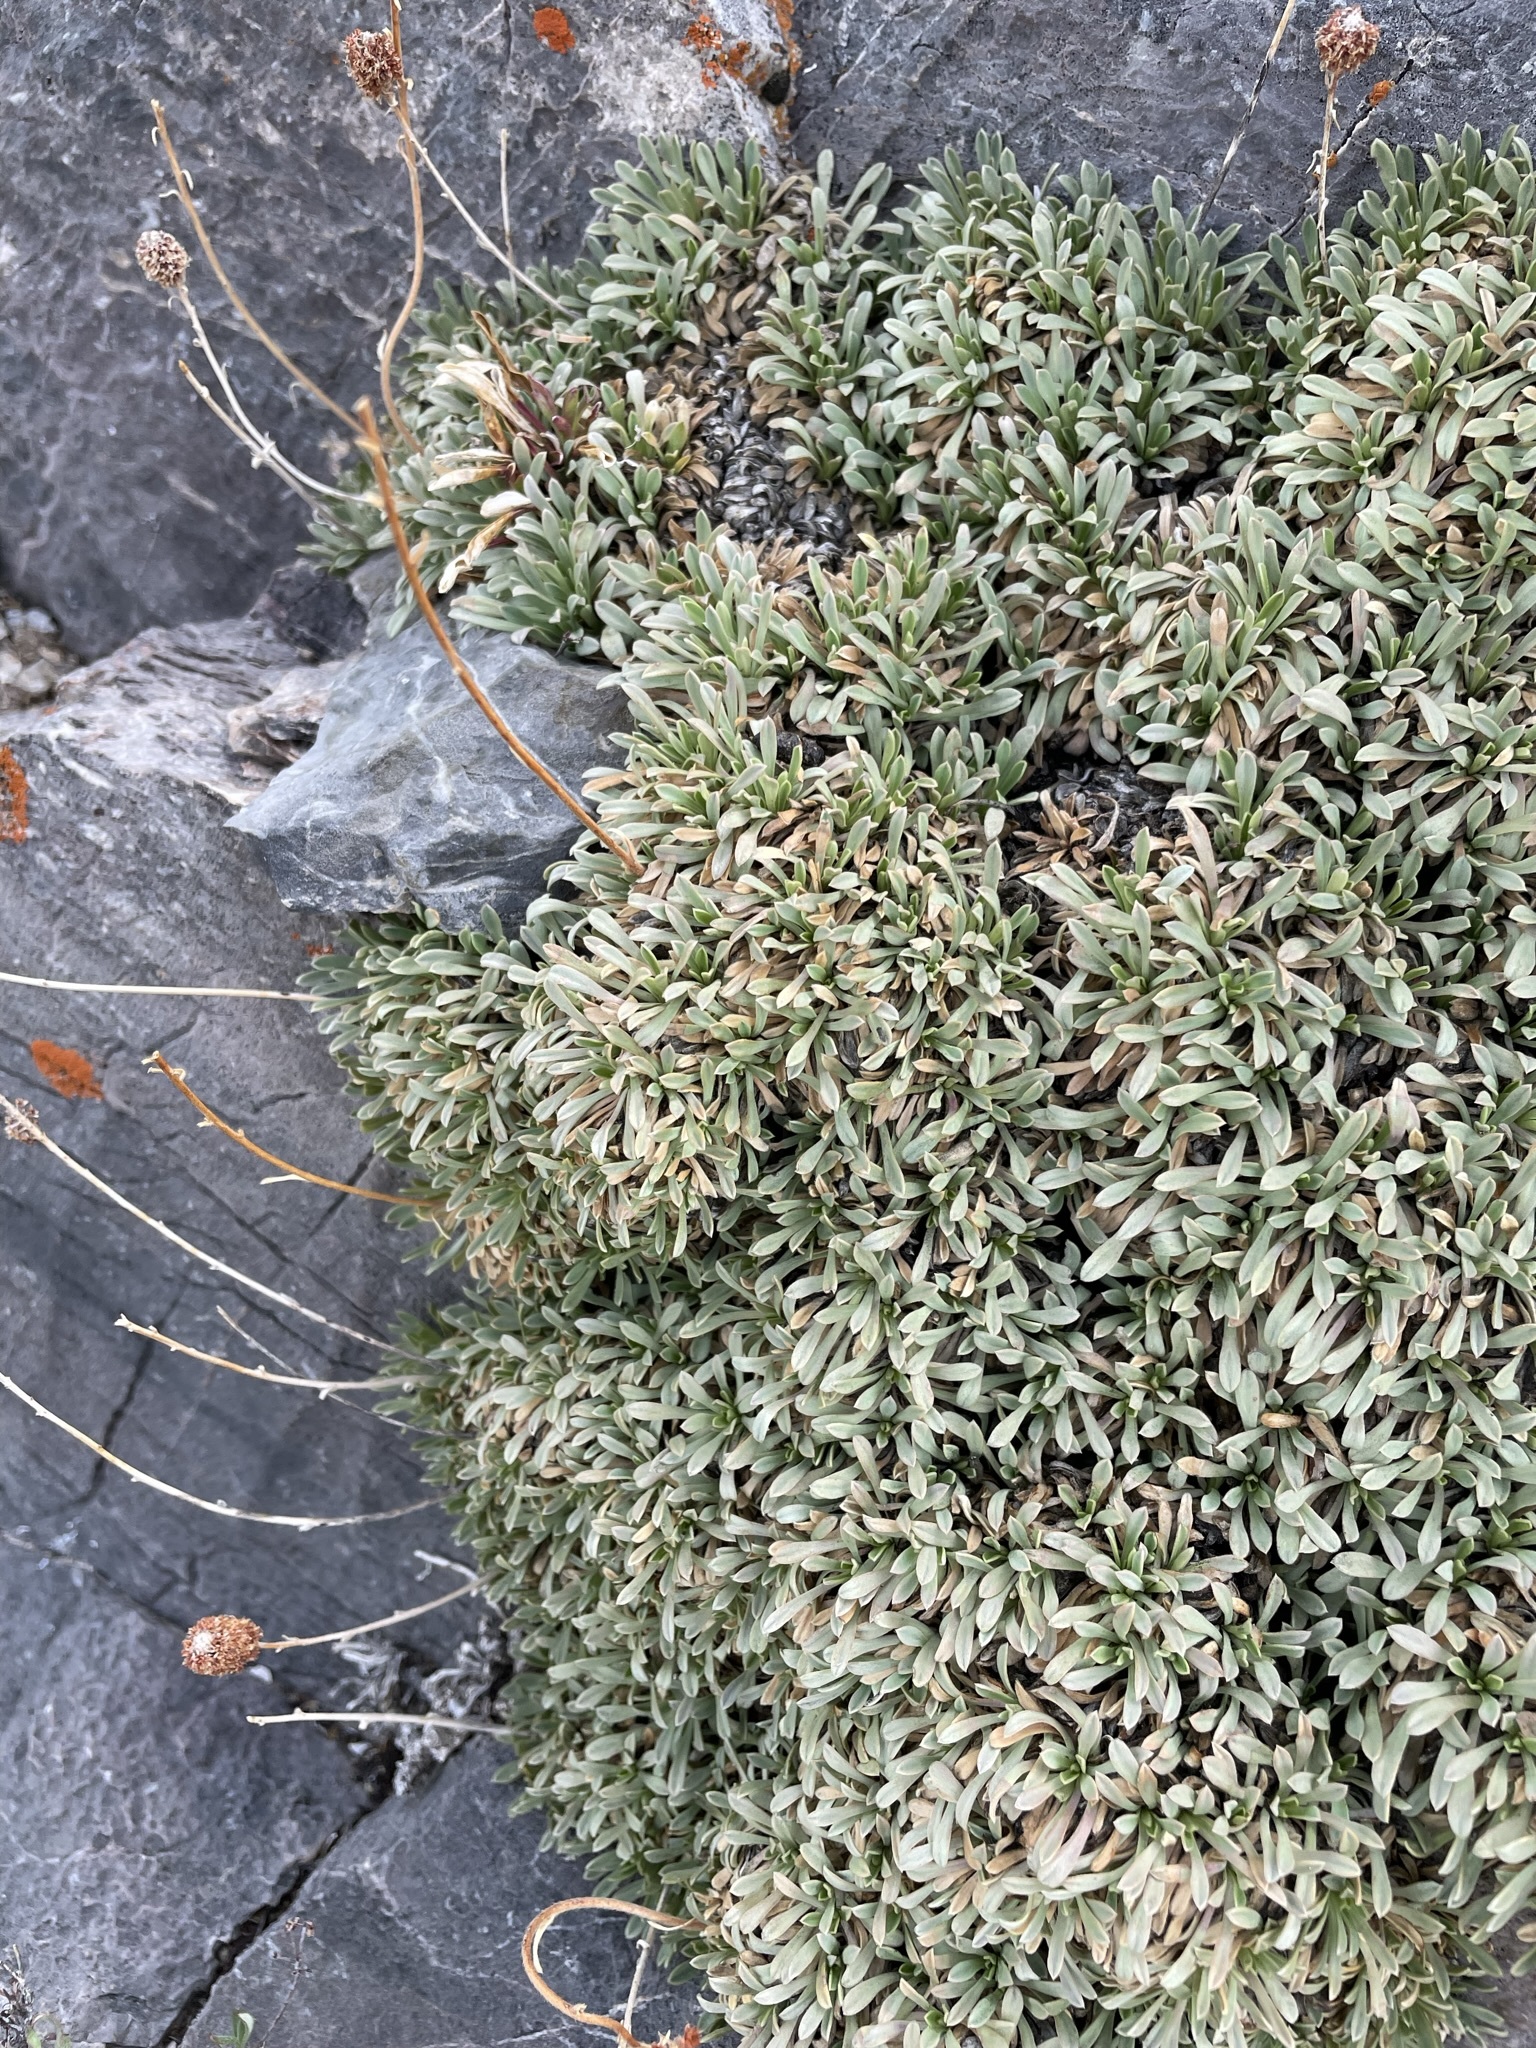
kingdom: Plantae
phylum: Tracheophyta
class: Magnoliopsida
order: Rosales
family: Rosaceae
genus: Petrophytum
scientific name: Petrophytum caespitosum
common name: Mat rockspirea
